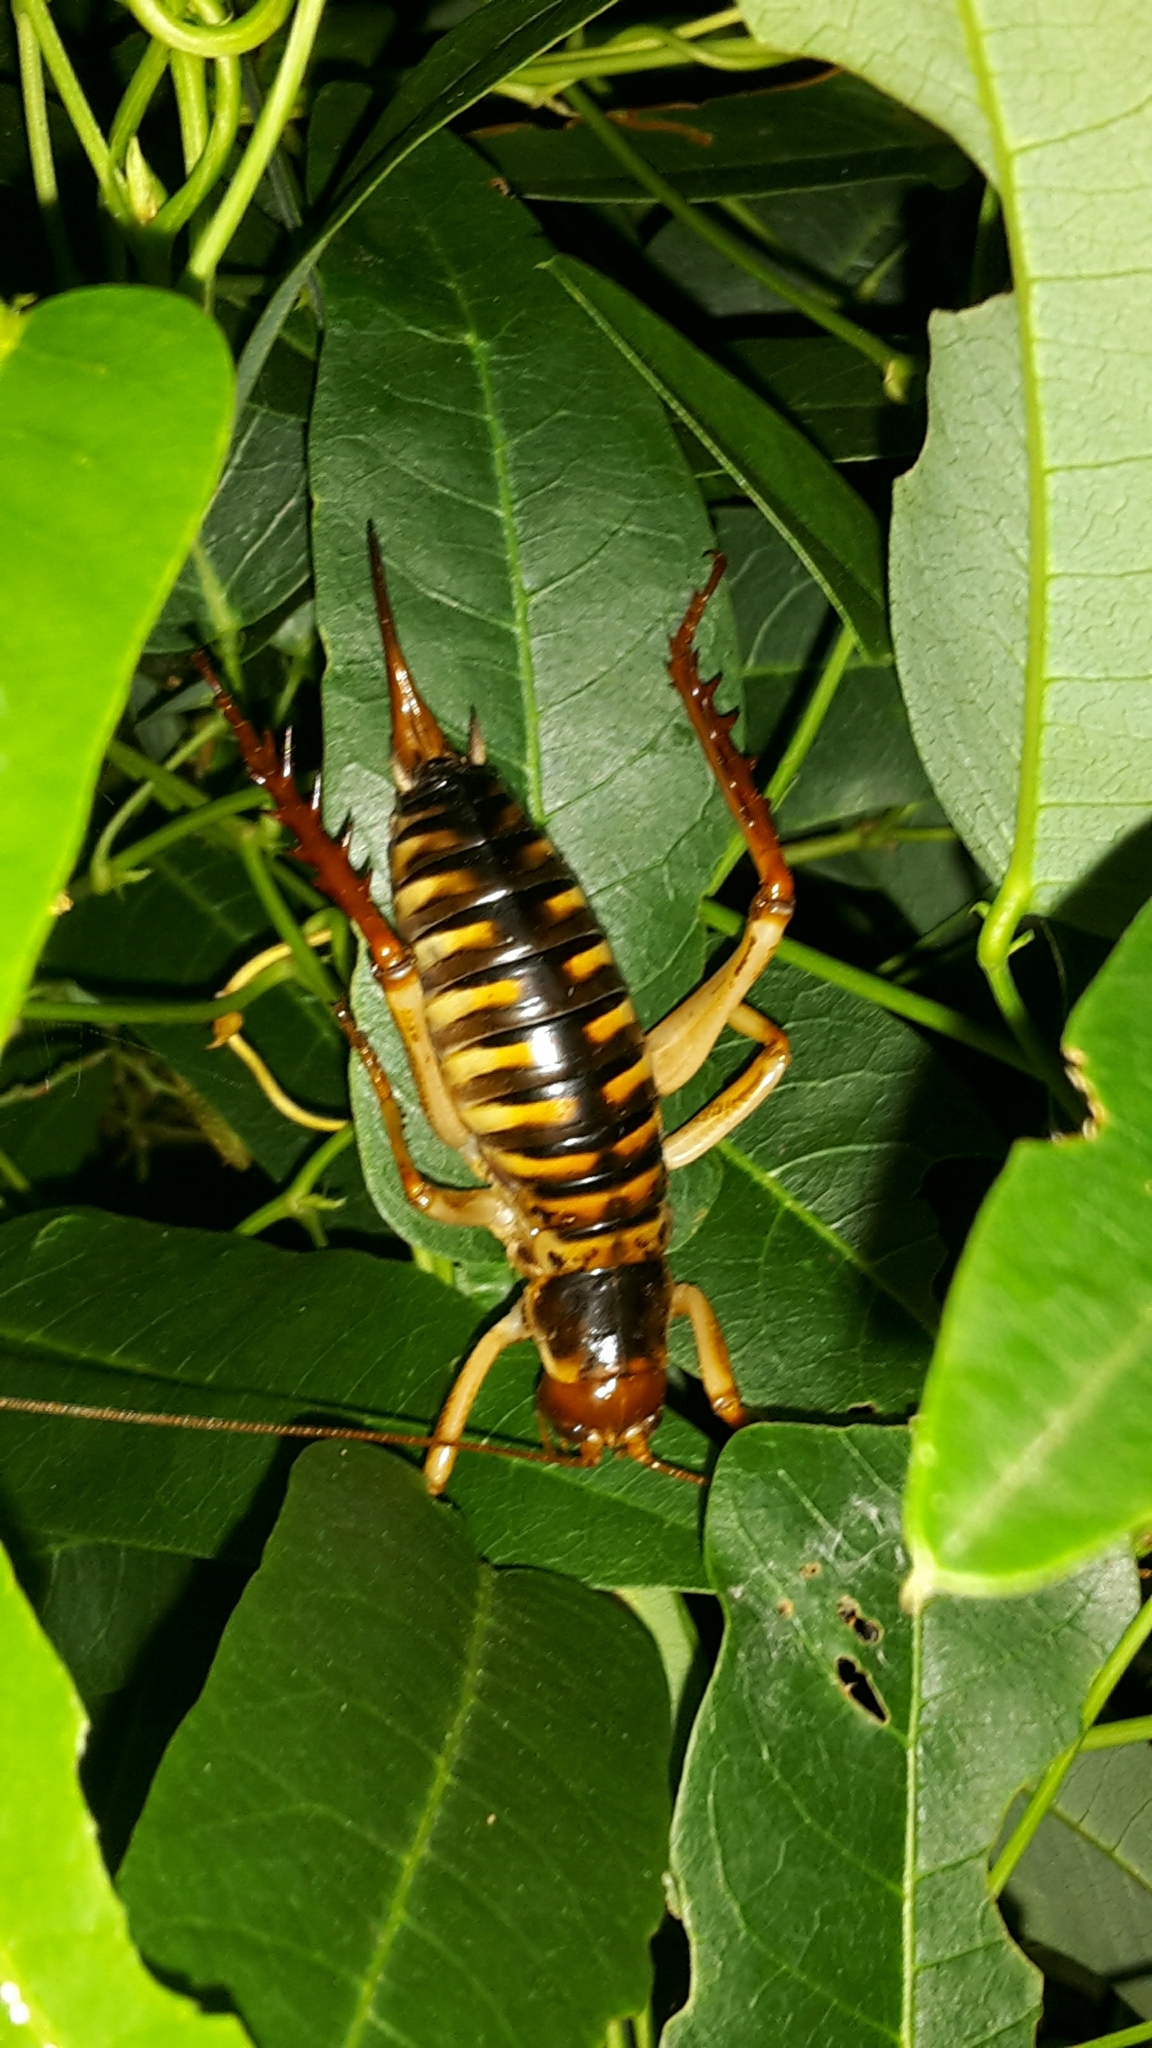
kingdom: Animalia
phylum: Arthropoda
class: Insecta
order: Orthoptera
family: Anostostomatidae
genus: Hemideina
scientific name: Hemideina crassidens
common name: Wellington tree weta
